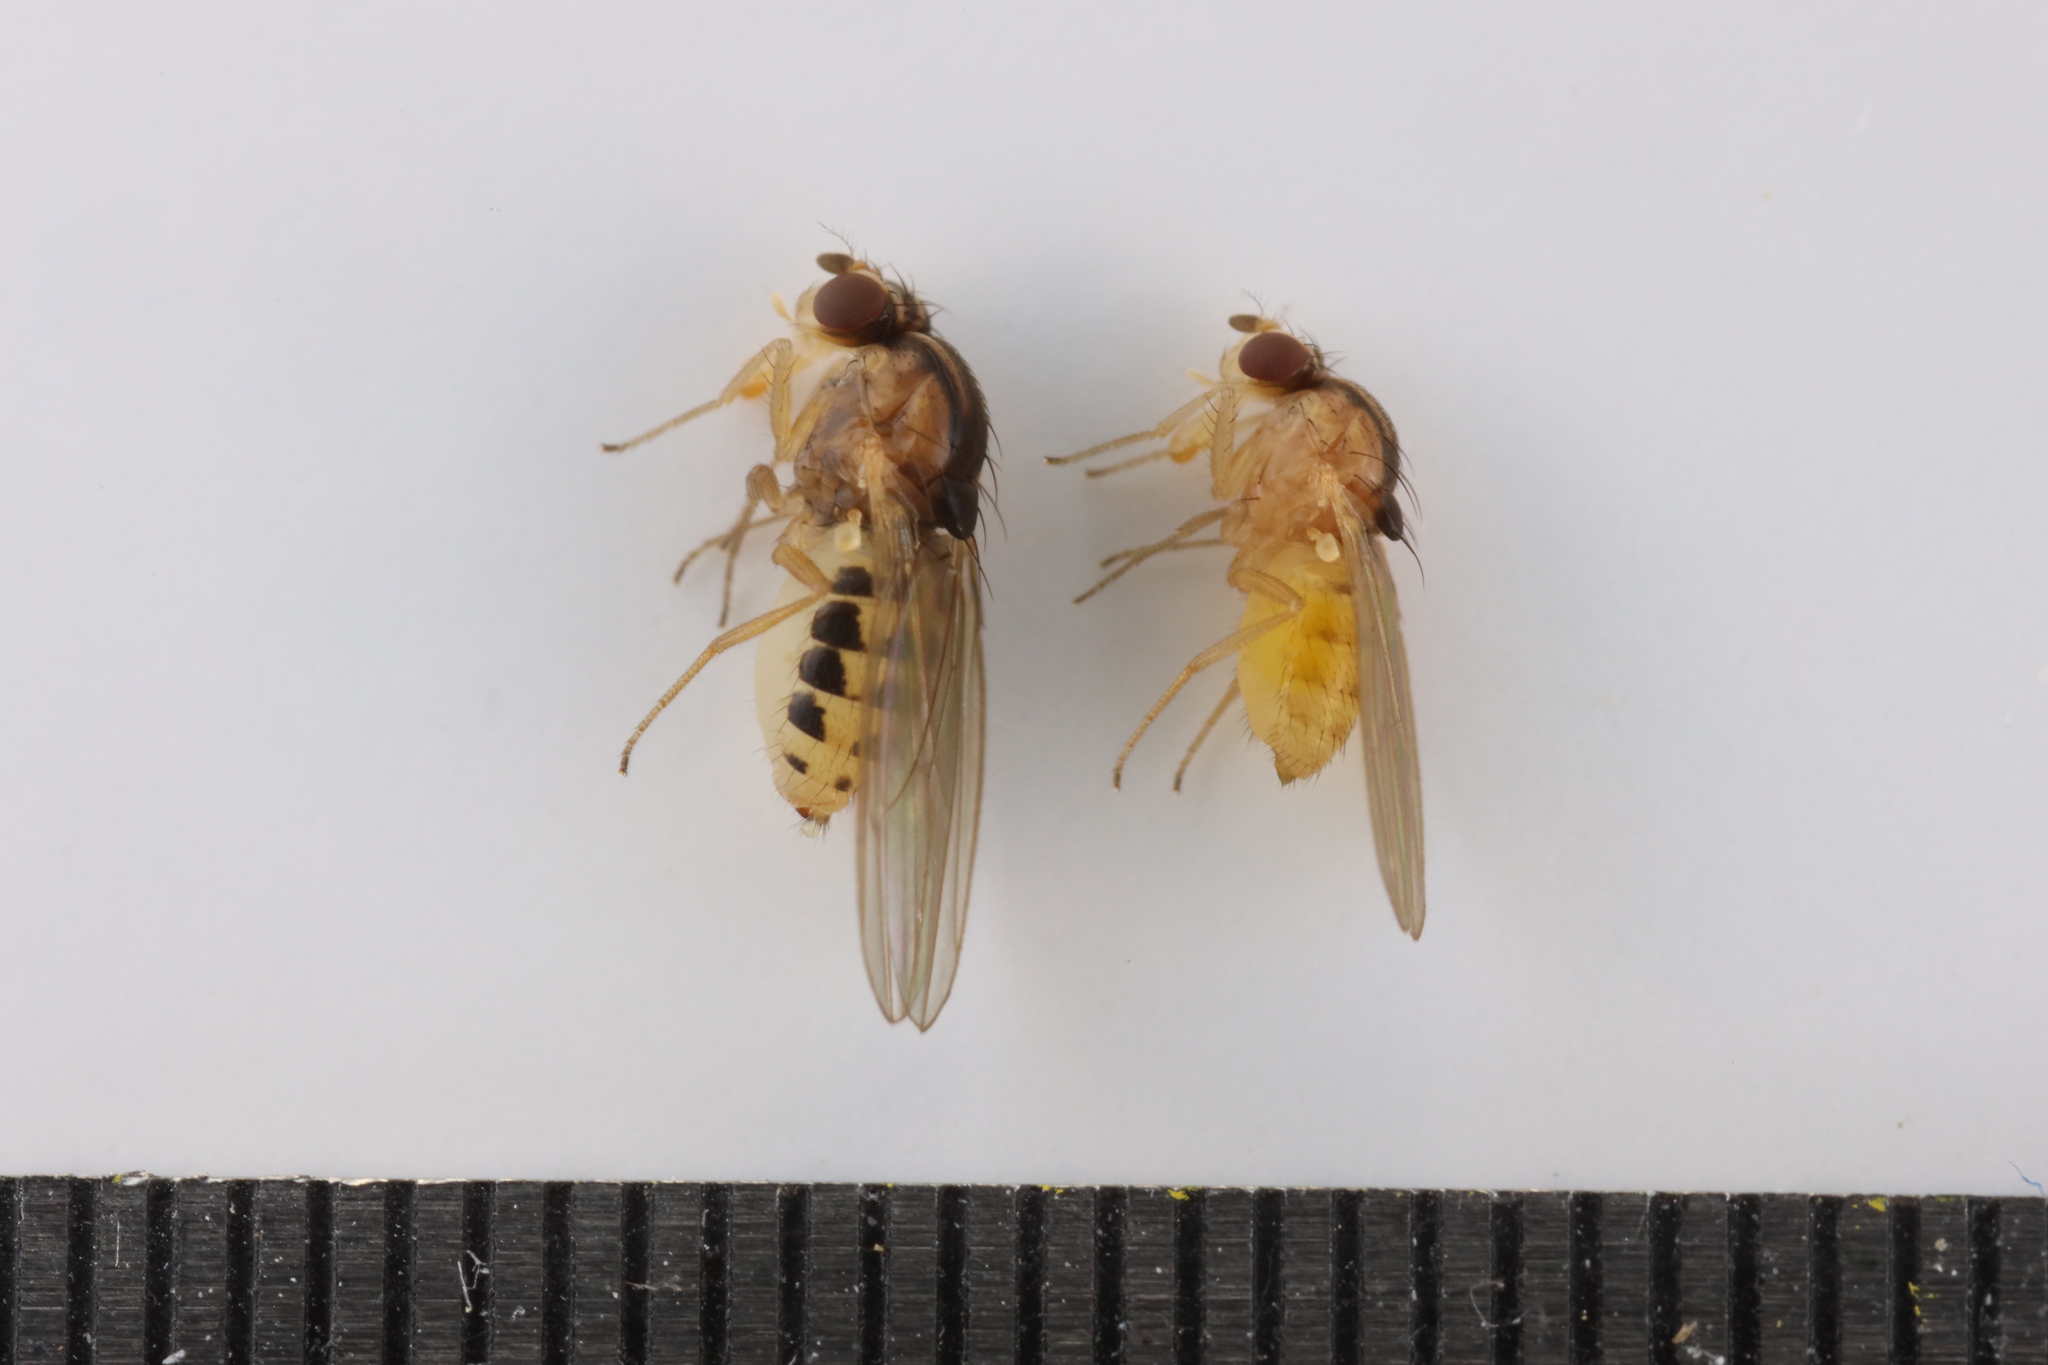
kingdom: Animalia
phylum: Arthropoda
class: Insecta
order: Diptera
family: Drosophilidae
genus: Hirtodrosophila
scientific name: Hirtodrosophila trivittata
